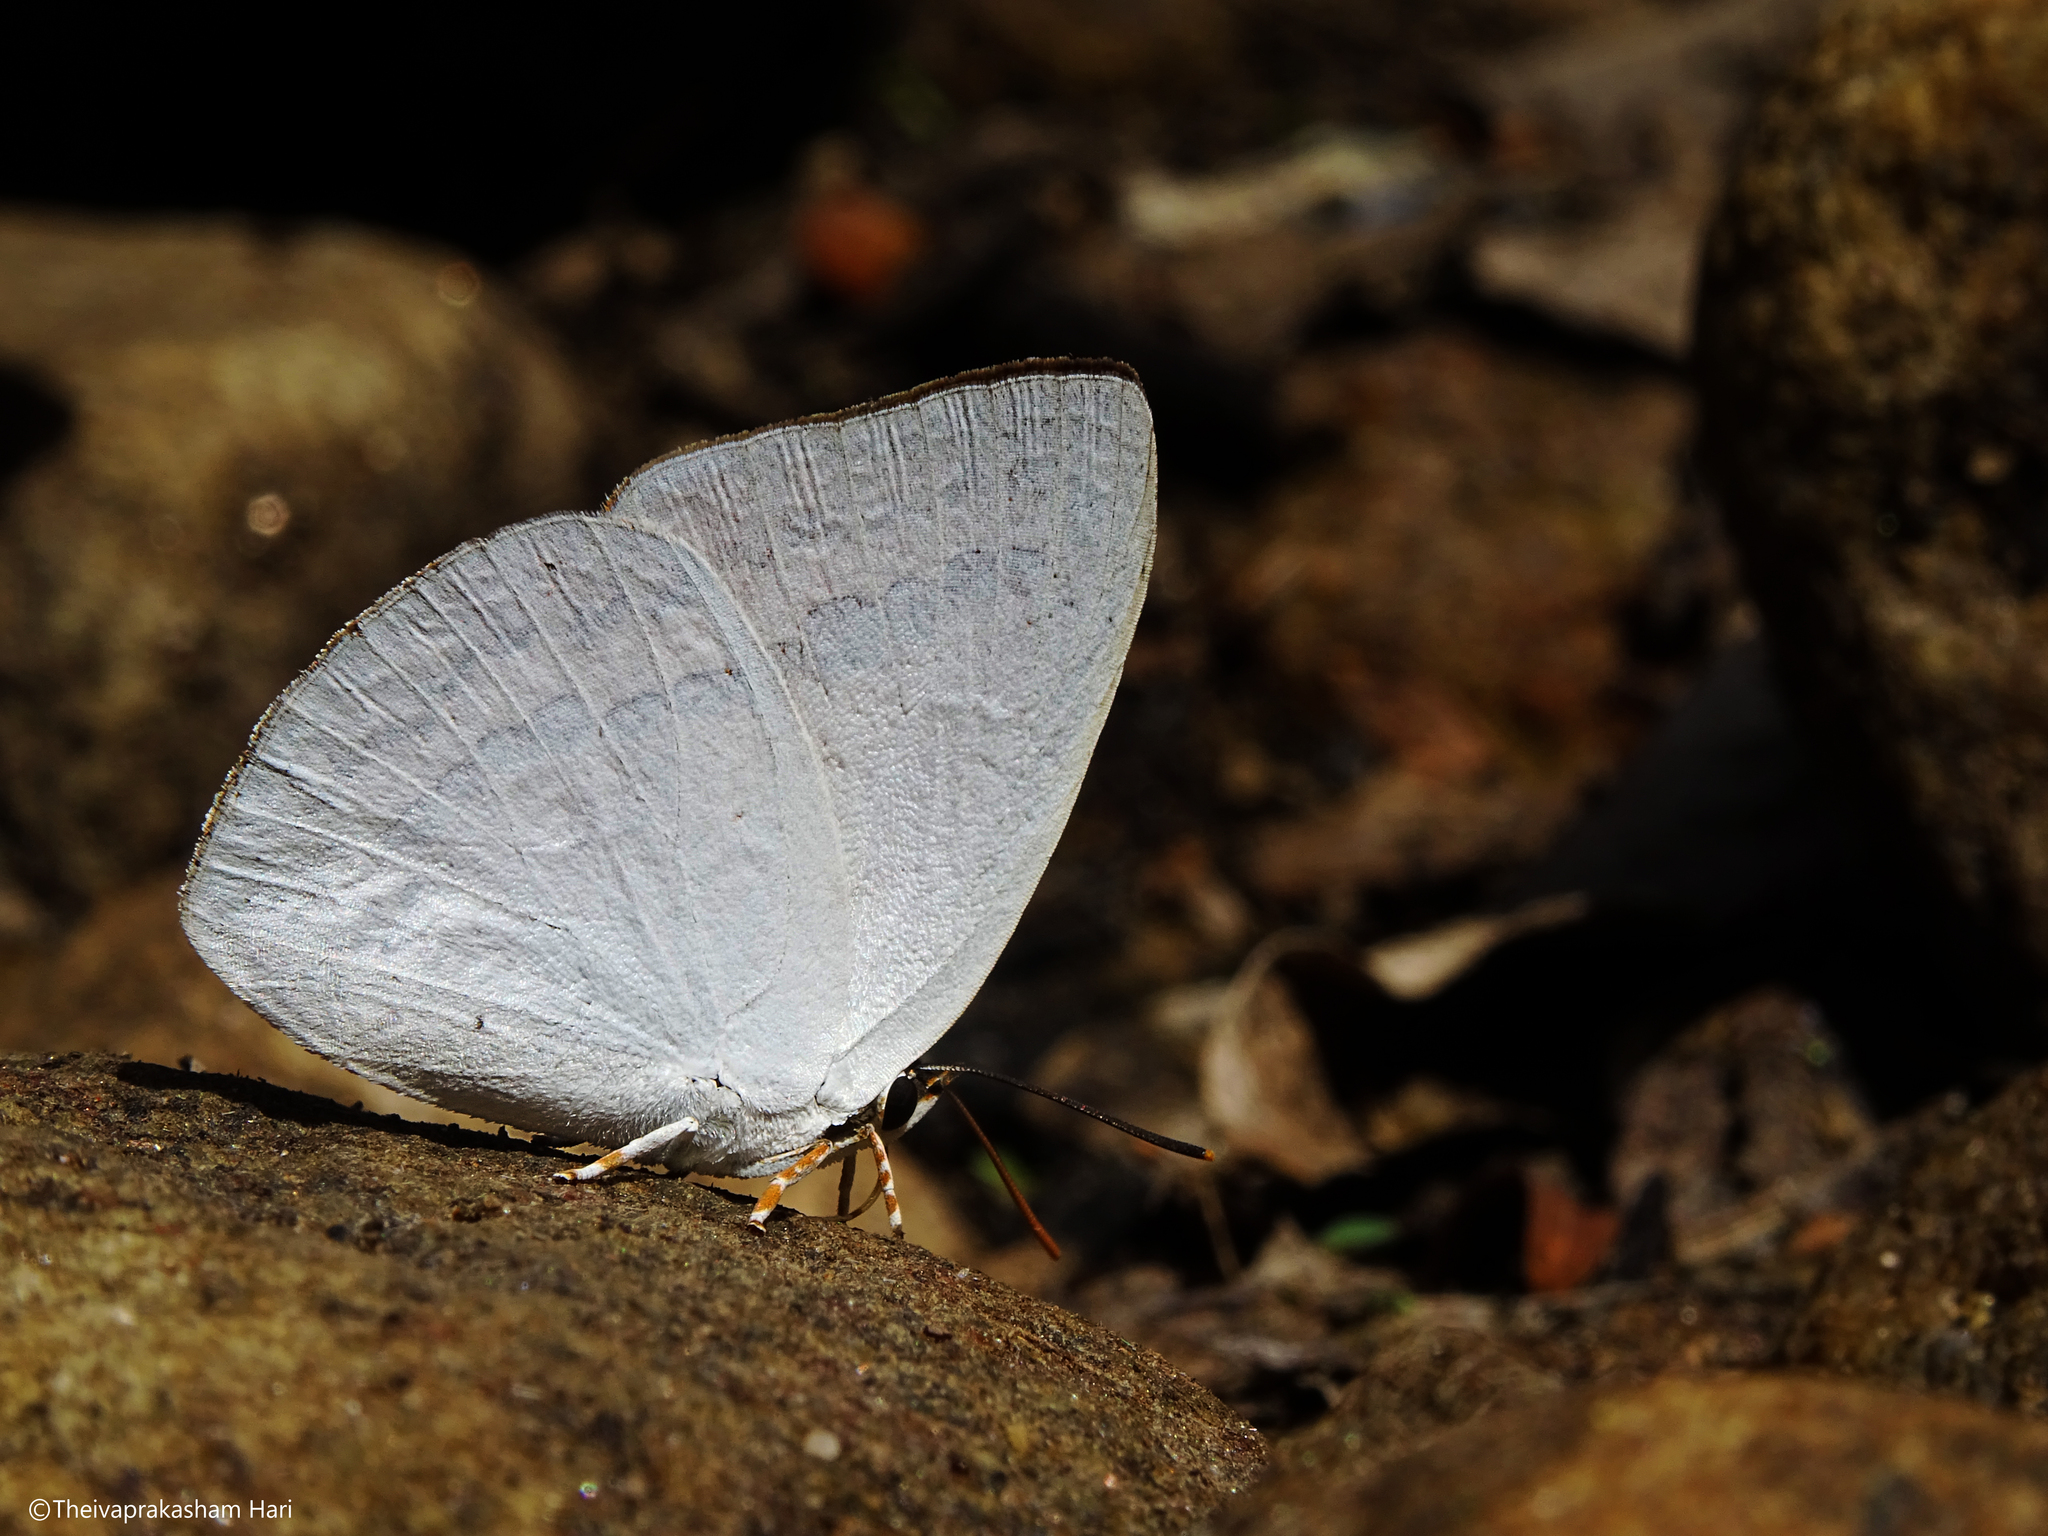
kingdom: Animalia
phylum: Arthropoda
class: Insecta
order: Lepidoptera
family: Lycaenidae
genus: Curetis
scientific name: Curetis thetis
